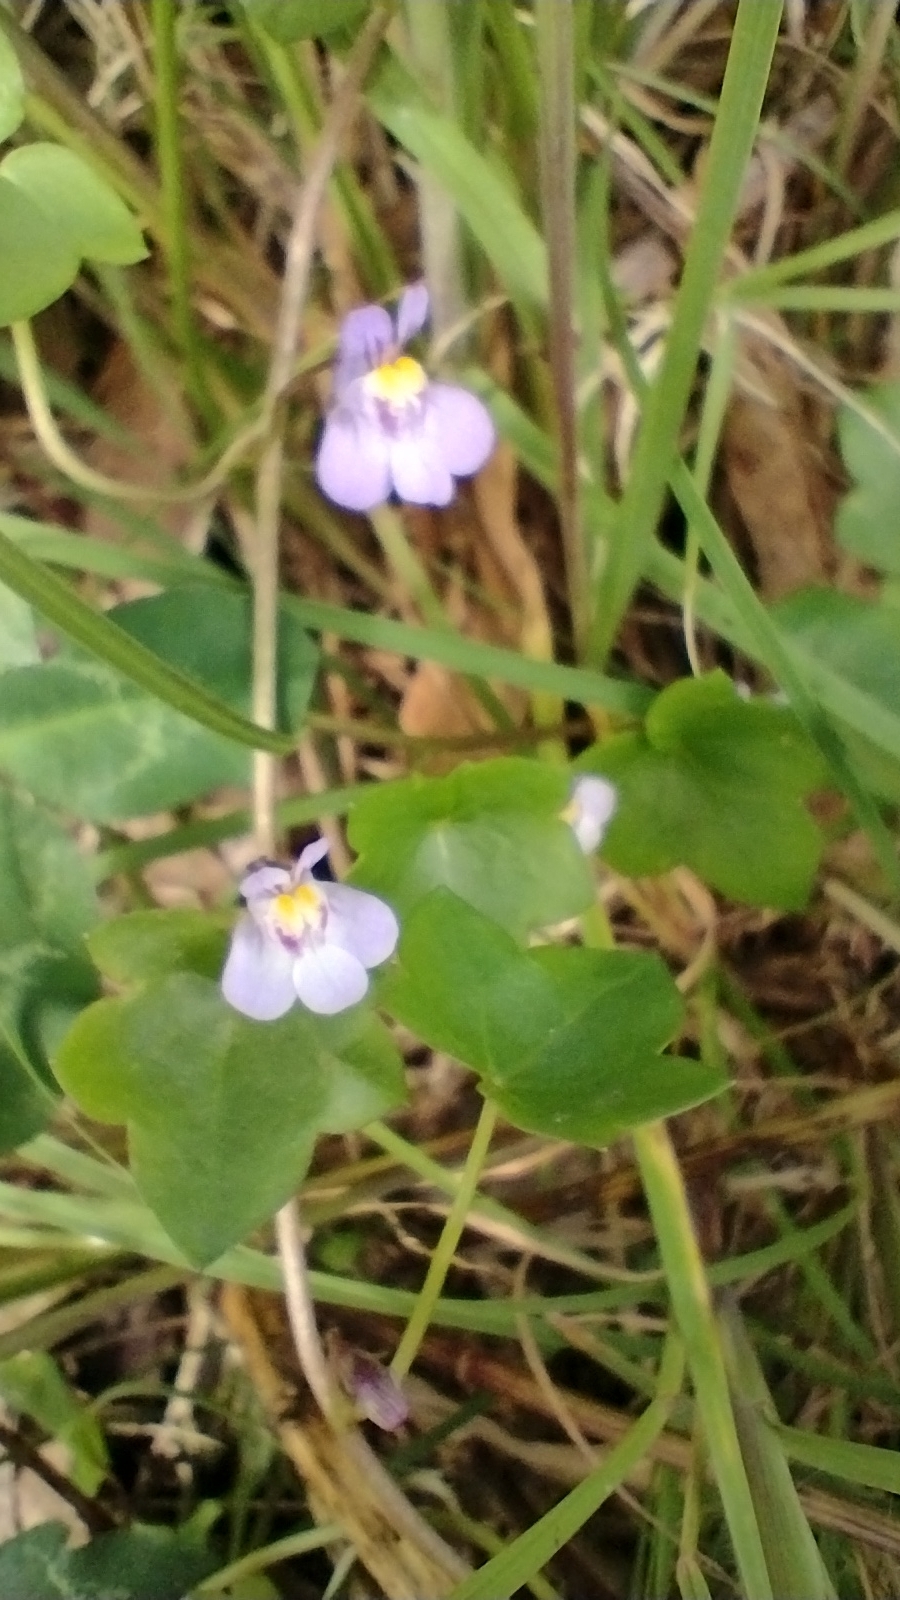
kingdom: Plantae
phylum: Tracheophyta
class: Magnoliopsida
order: Lamiales
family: Plantaginaceae
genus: Cymbalaria
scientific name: Cymbalaria muralis
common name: Ivy-leaved toadflax
